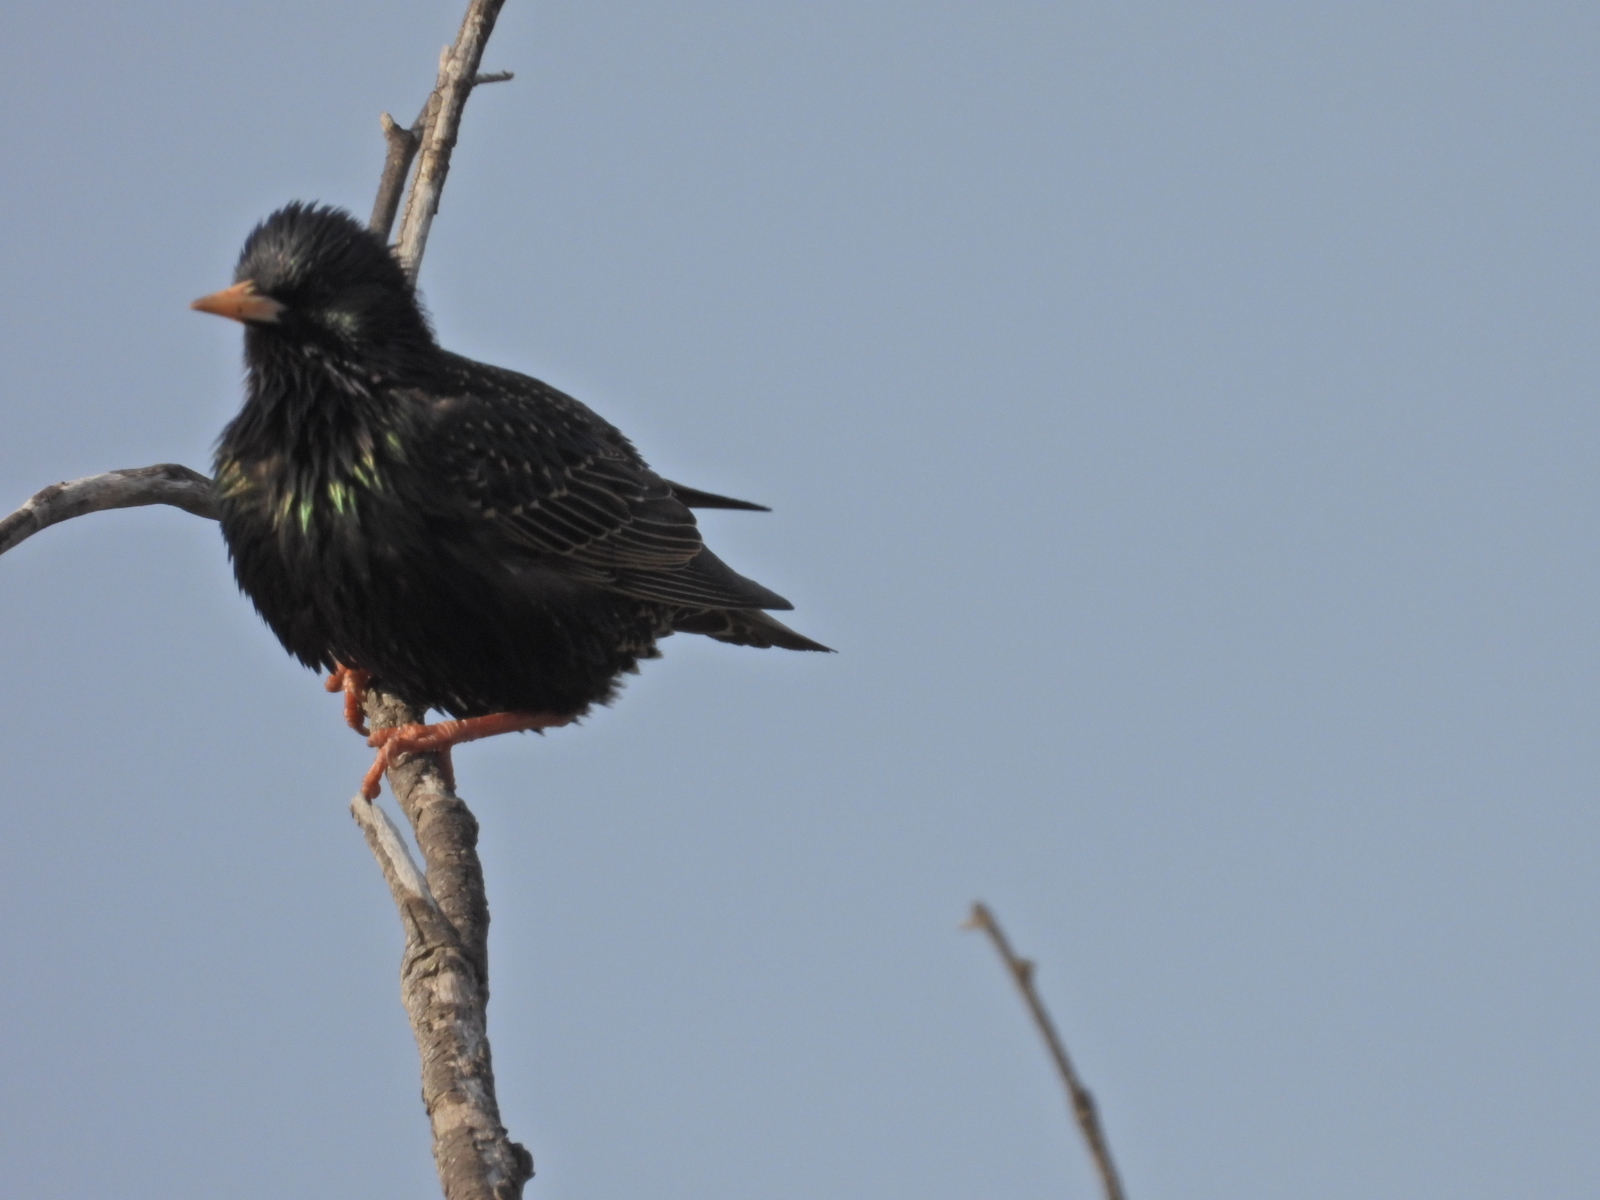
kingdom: Animalia
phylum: Chordata
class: Aves
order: Passeriformes
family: Sturnidae
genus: Sturnus
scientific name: Sturnus vulgaris
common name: Common starling
